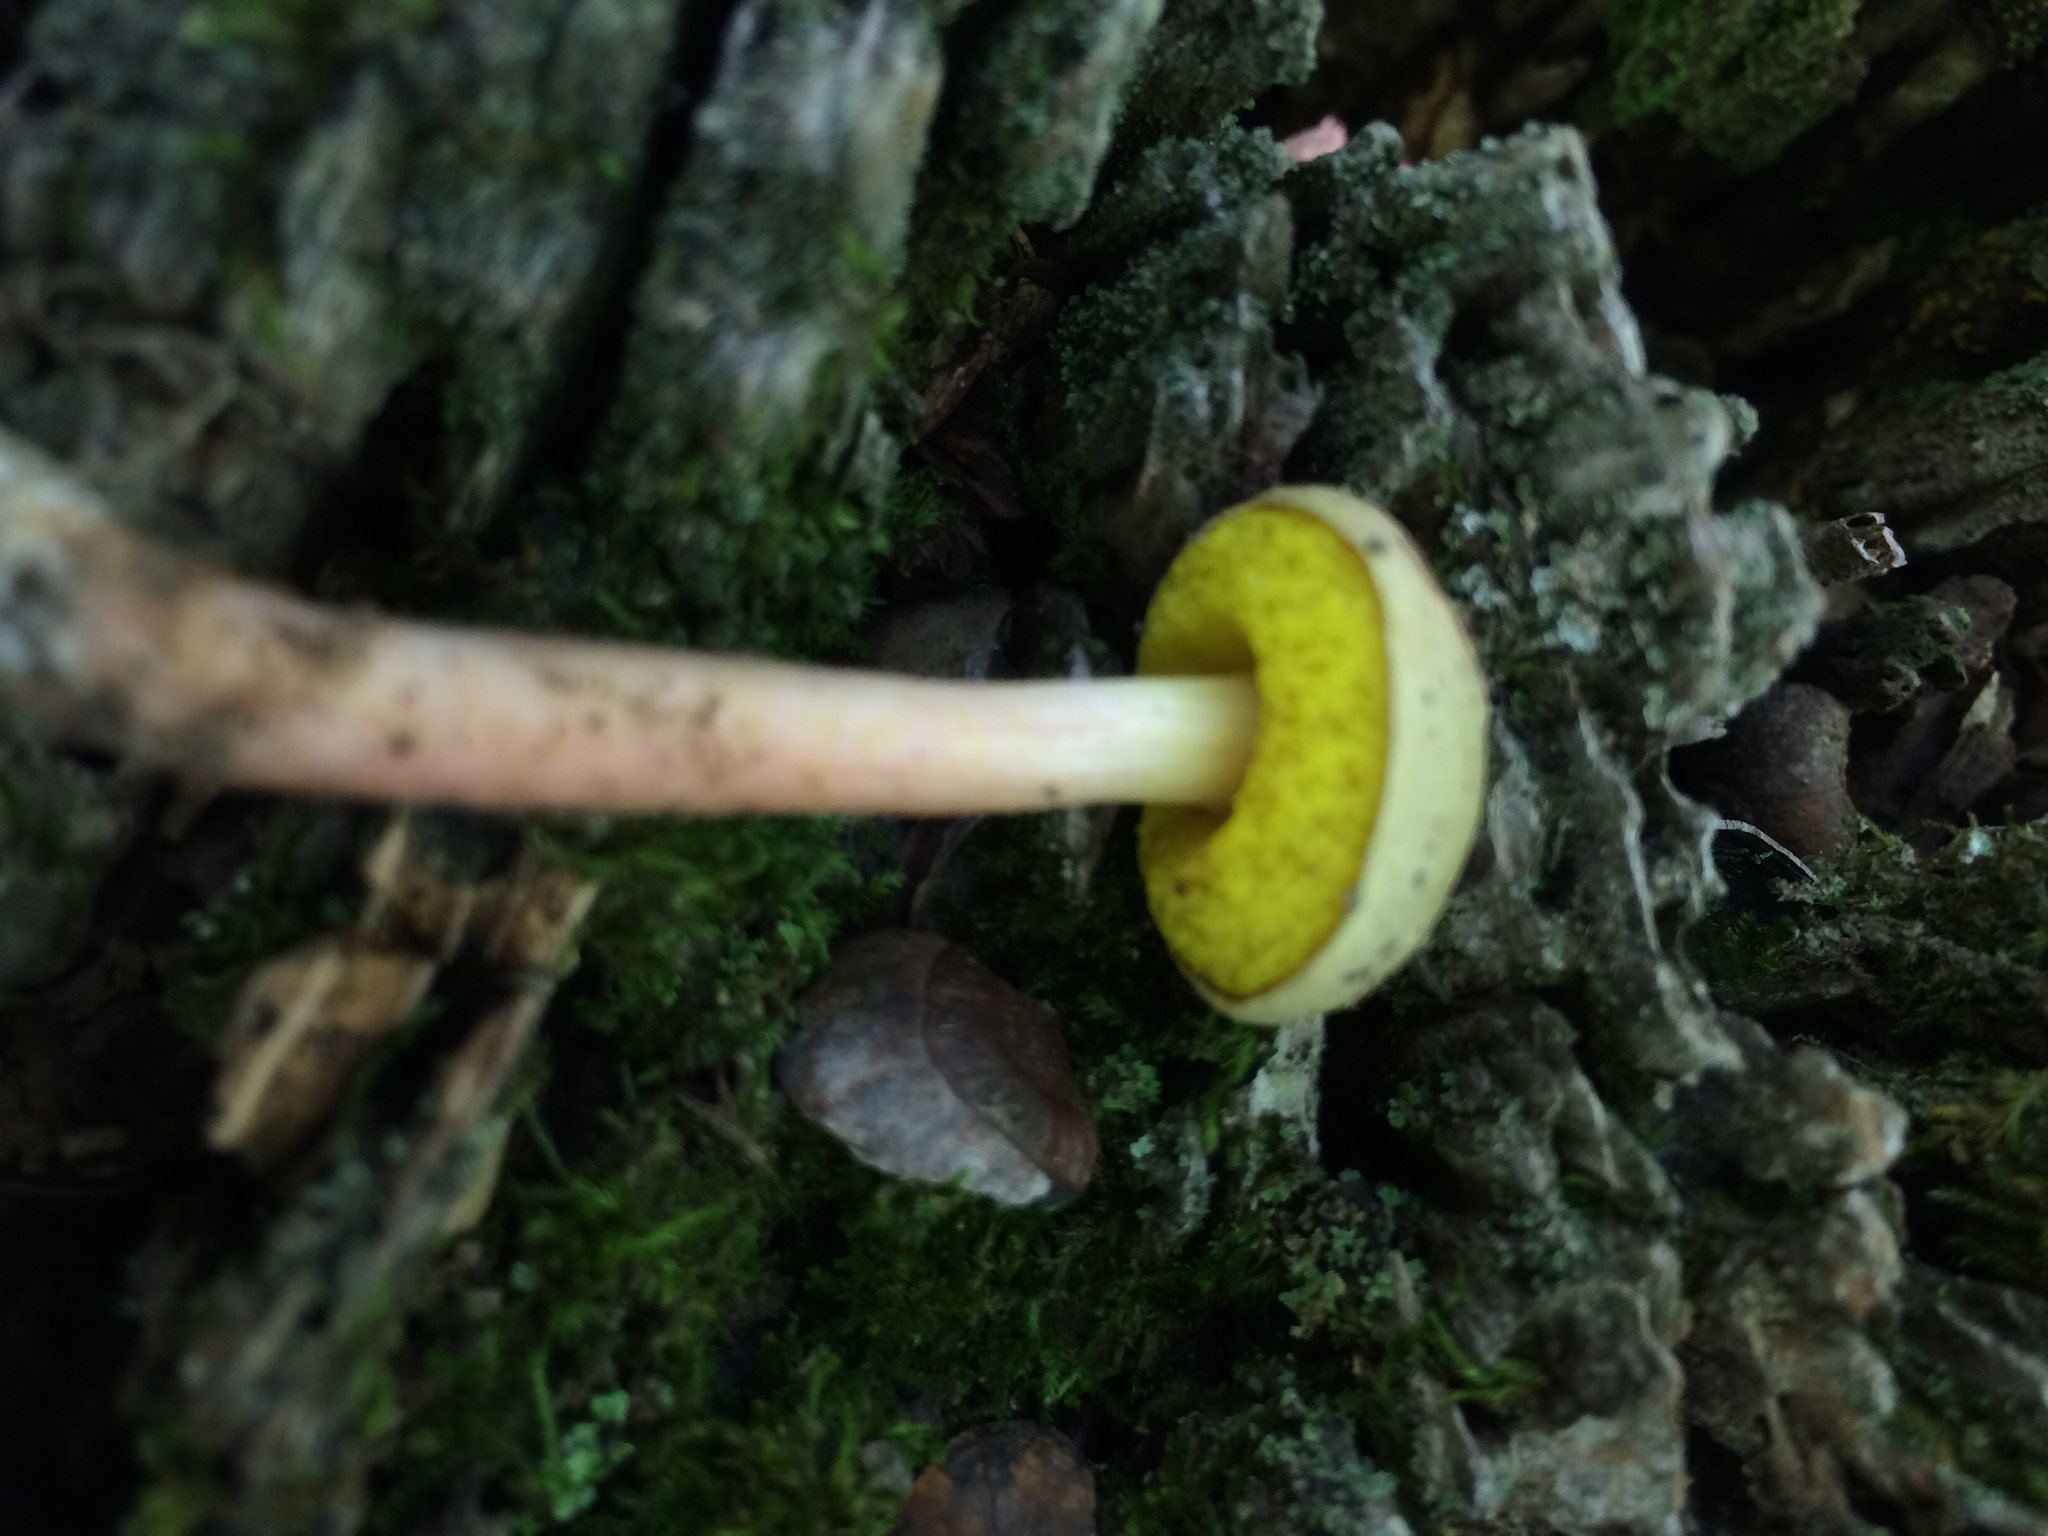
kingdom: Fungi
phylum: Basidiomycota
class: Agaricomycetes
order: Boletales
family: Boletaceae
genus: Aureoboletus
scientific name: Aureoboletus auriporus
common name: Sour gold-pored bolete
